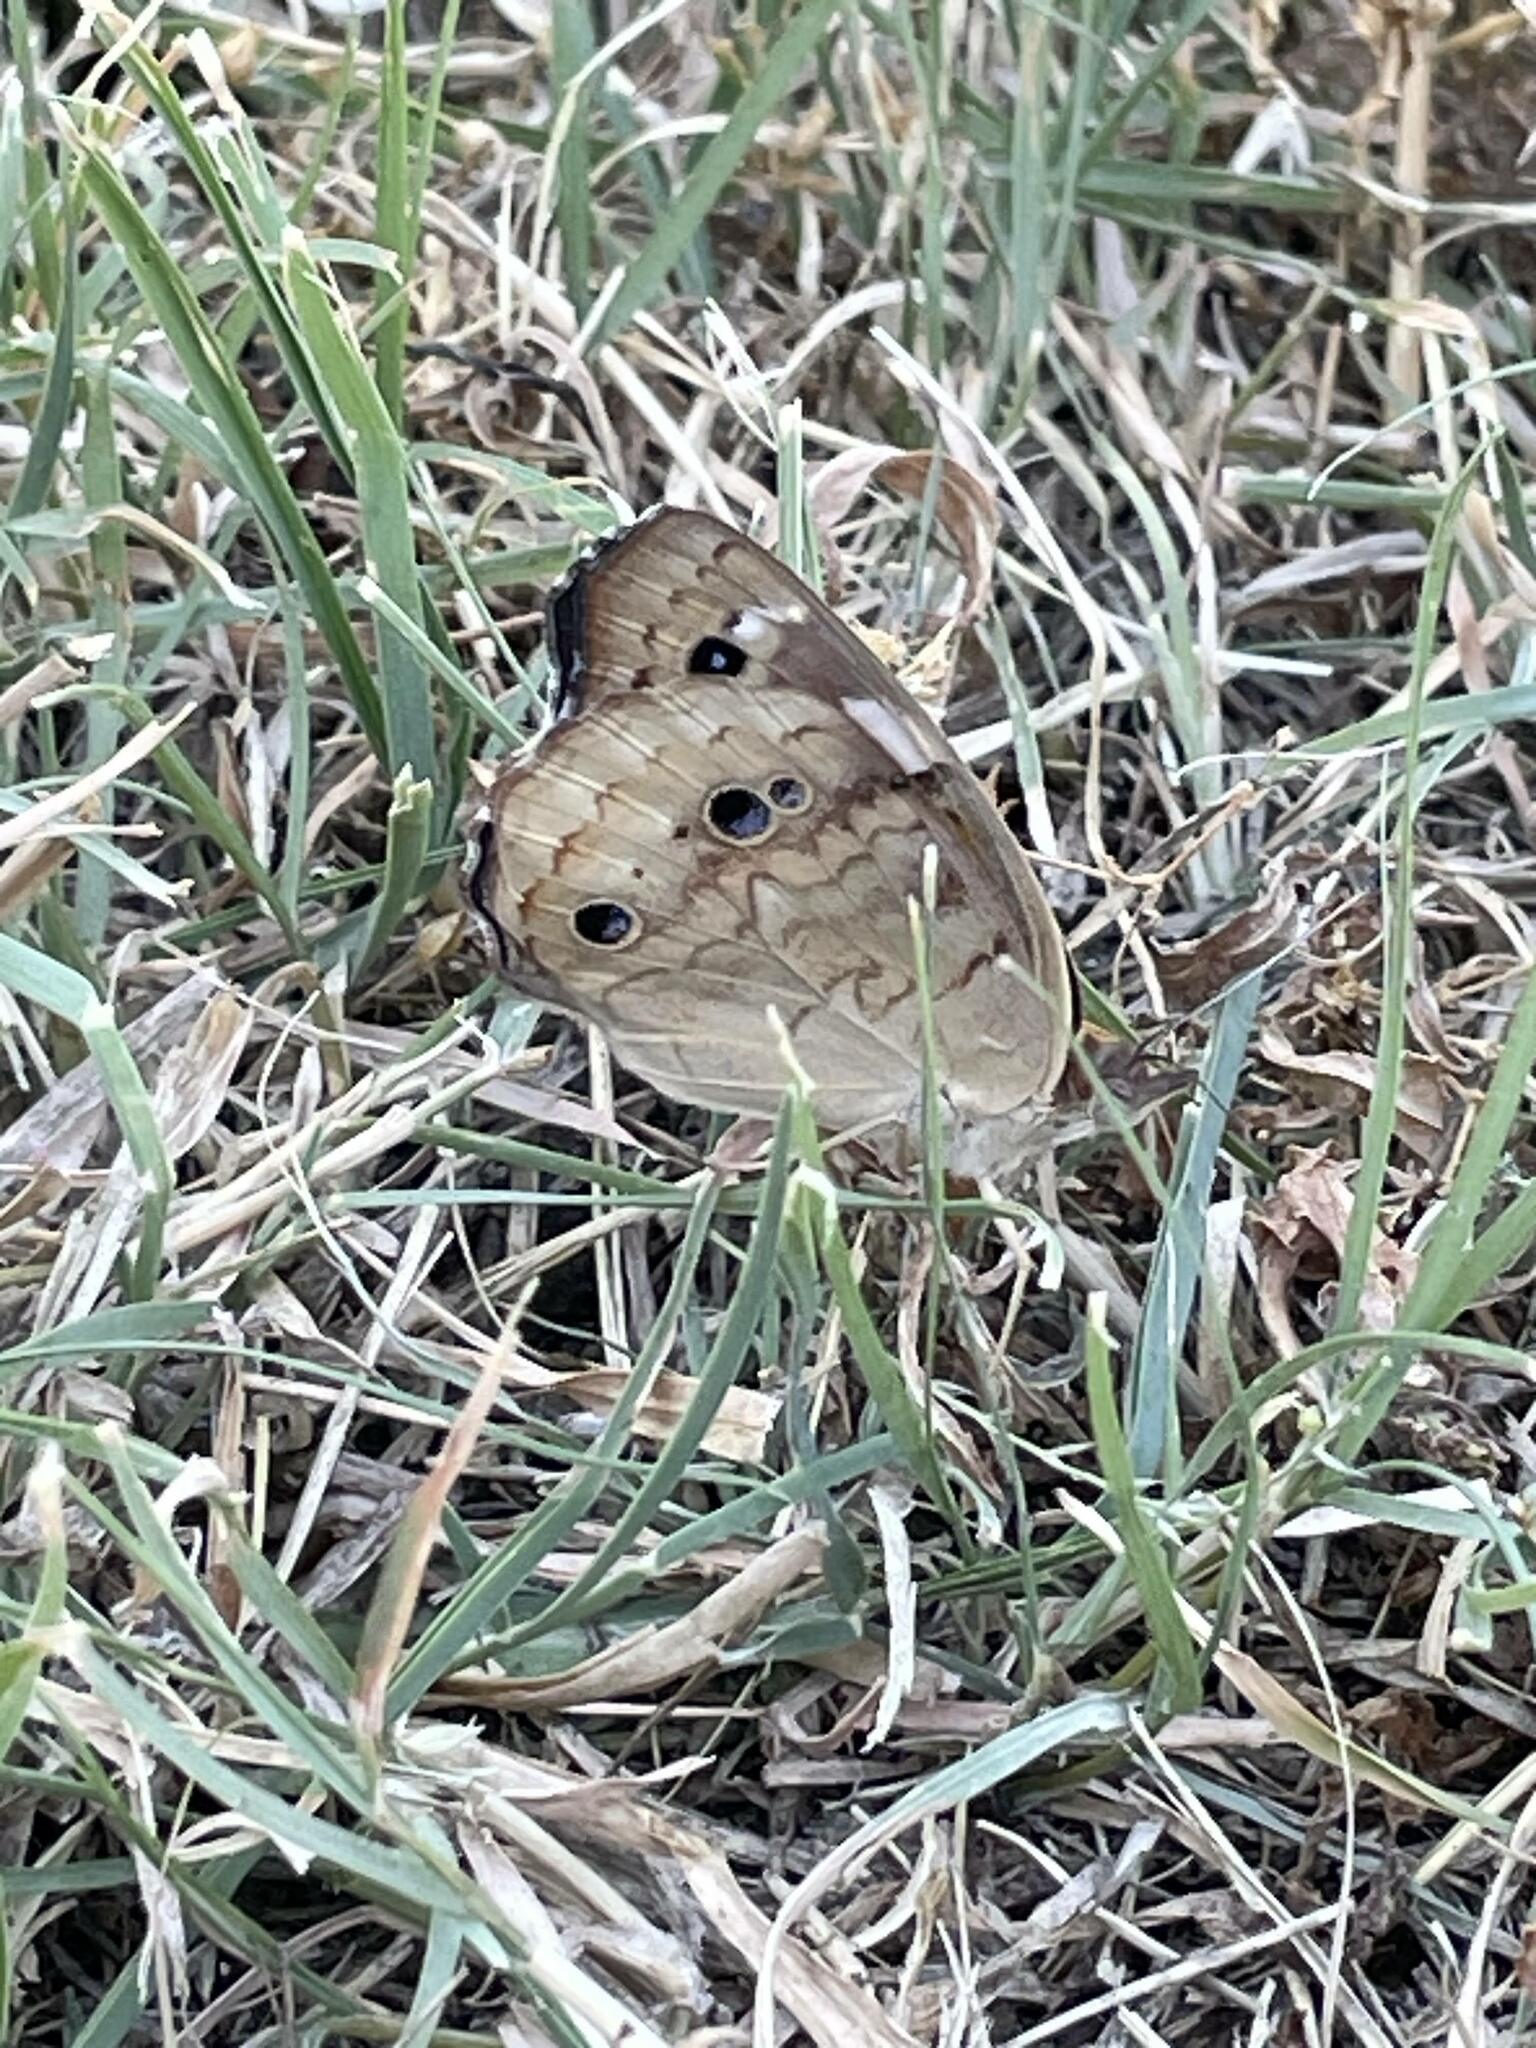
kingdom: Animalia
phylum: Arthropoda
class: Insecta
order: Lepidoptera
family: Nymphalidae
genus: Junonia
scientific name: Junonia coenia
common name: Common buckeye
